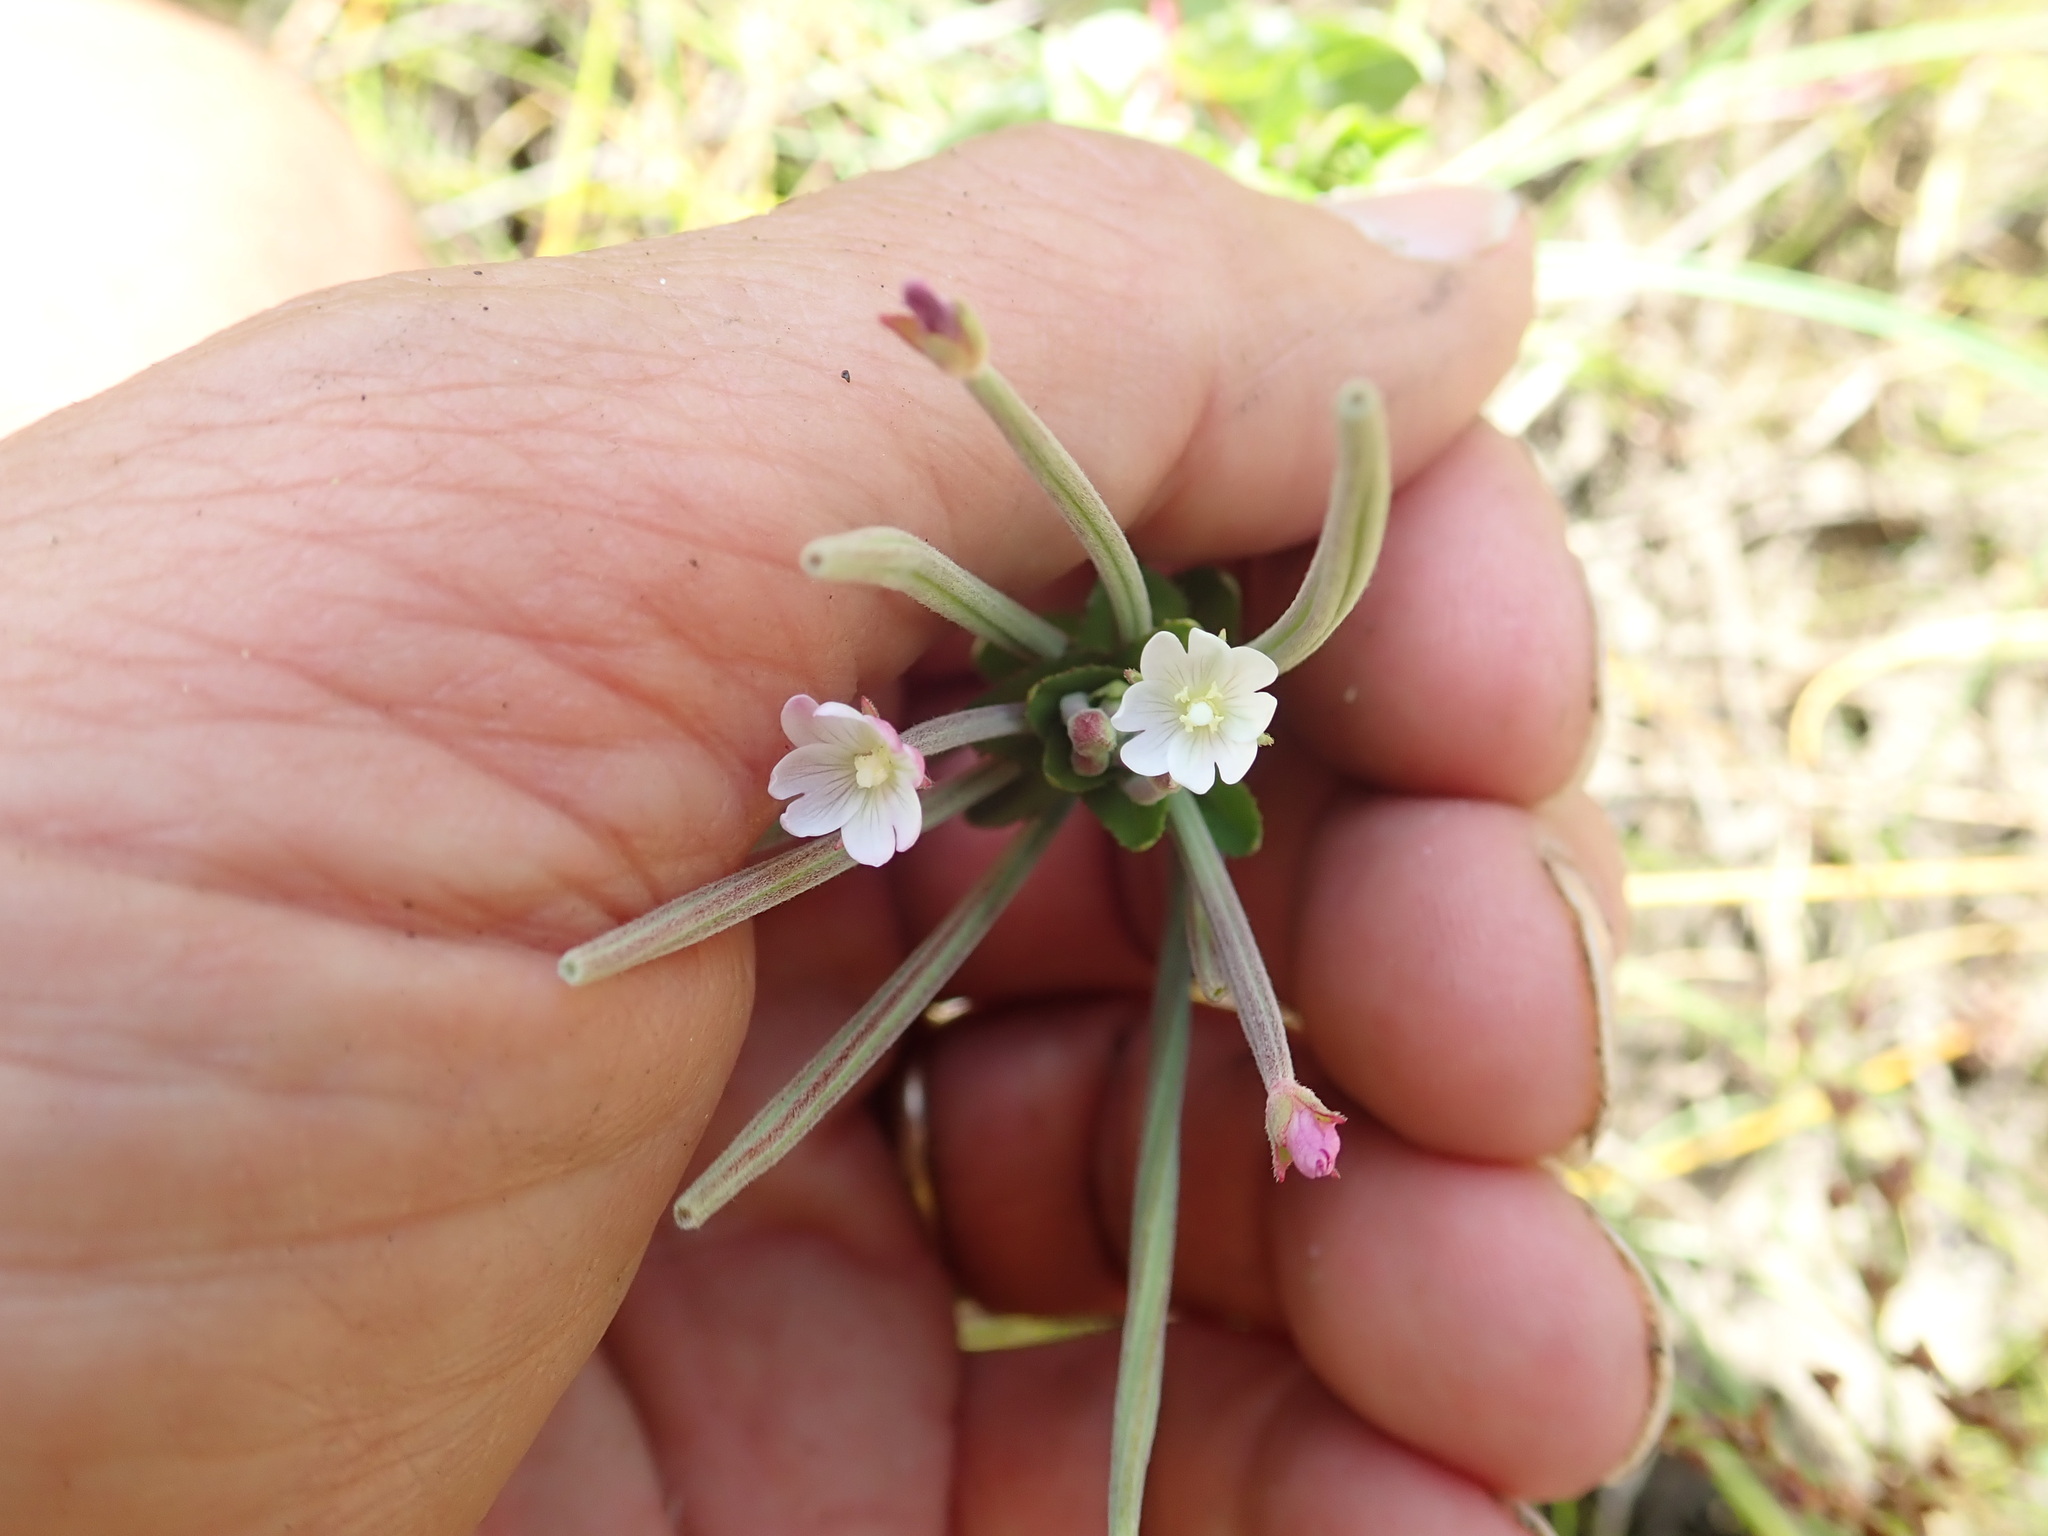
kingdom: Plantae
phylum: Tracheophyta
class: Magnoliopsida
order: Myrtales
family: Onagraceae
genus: Epilobium
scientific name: Epilobium billardiereanum
